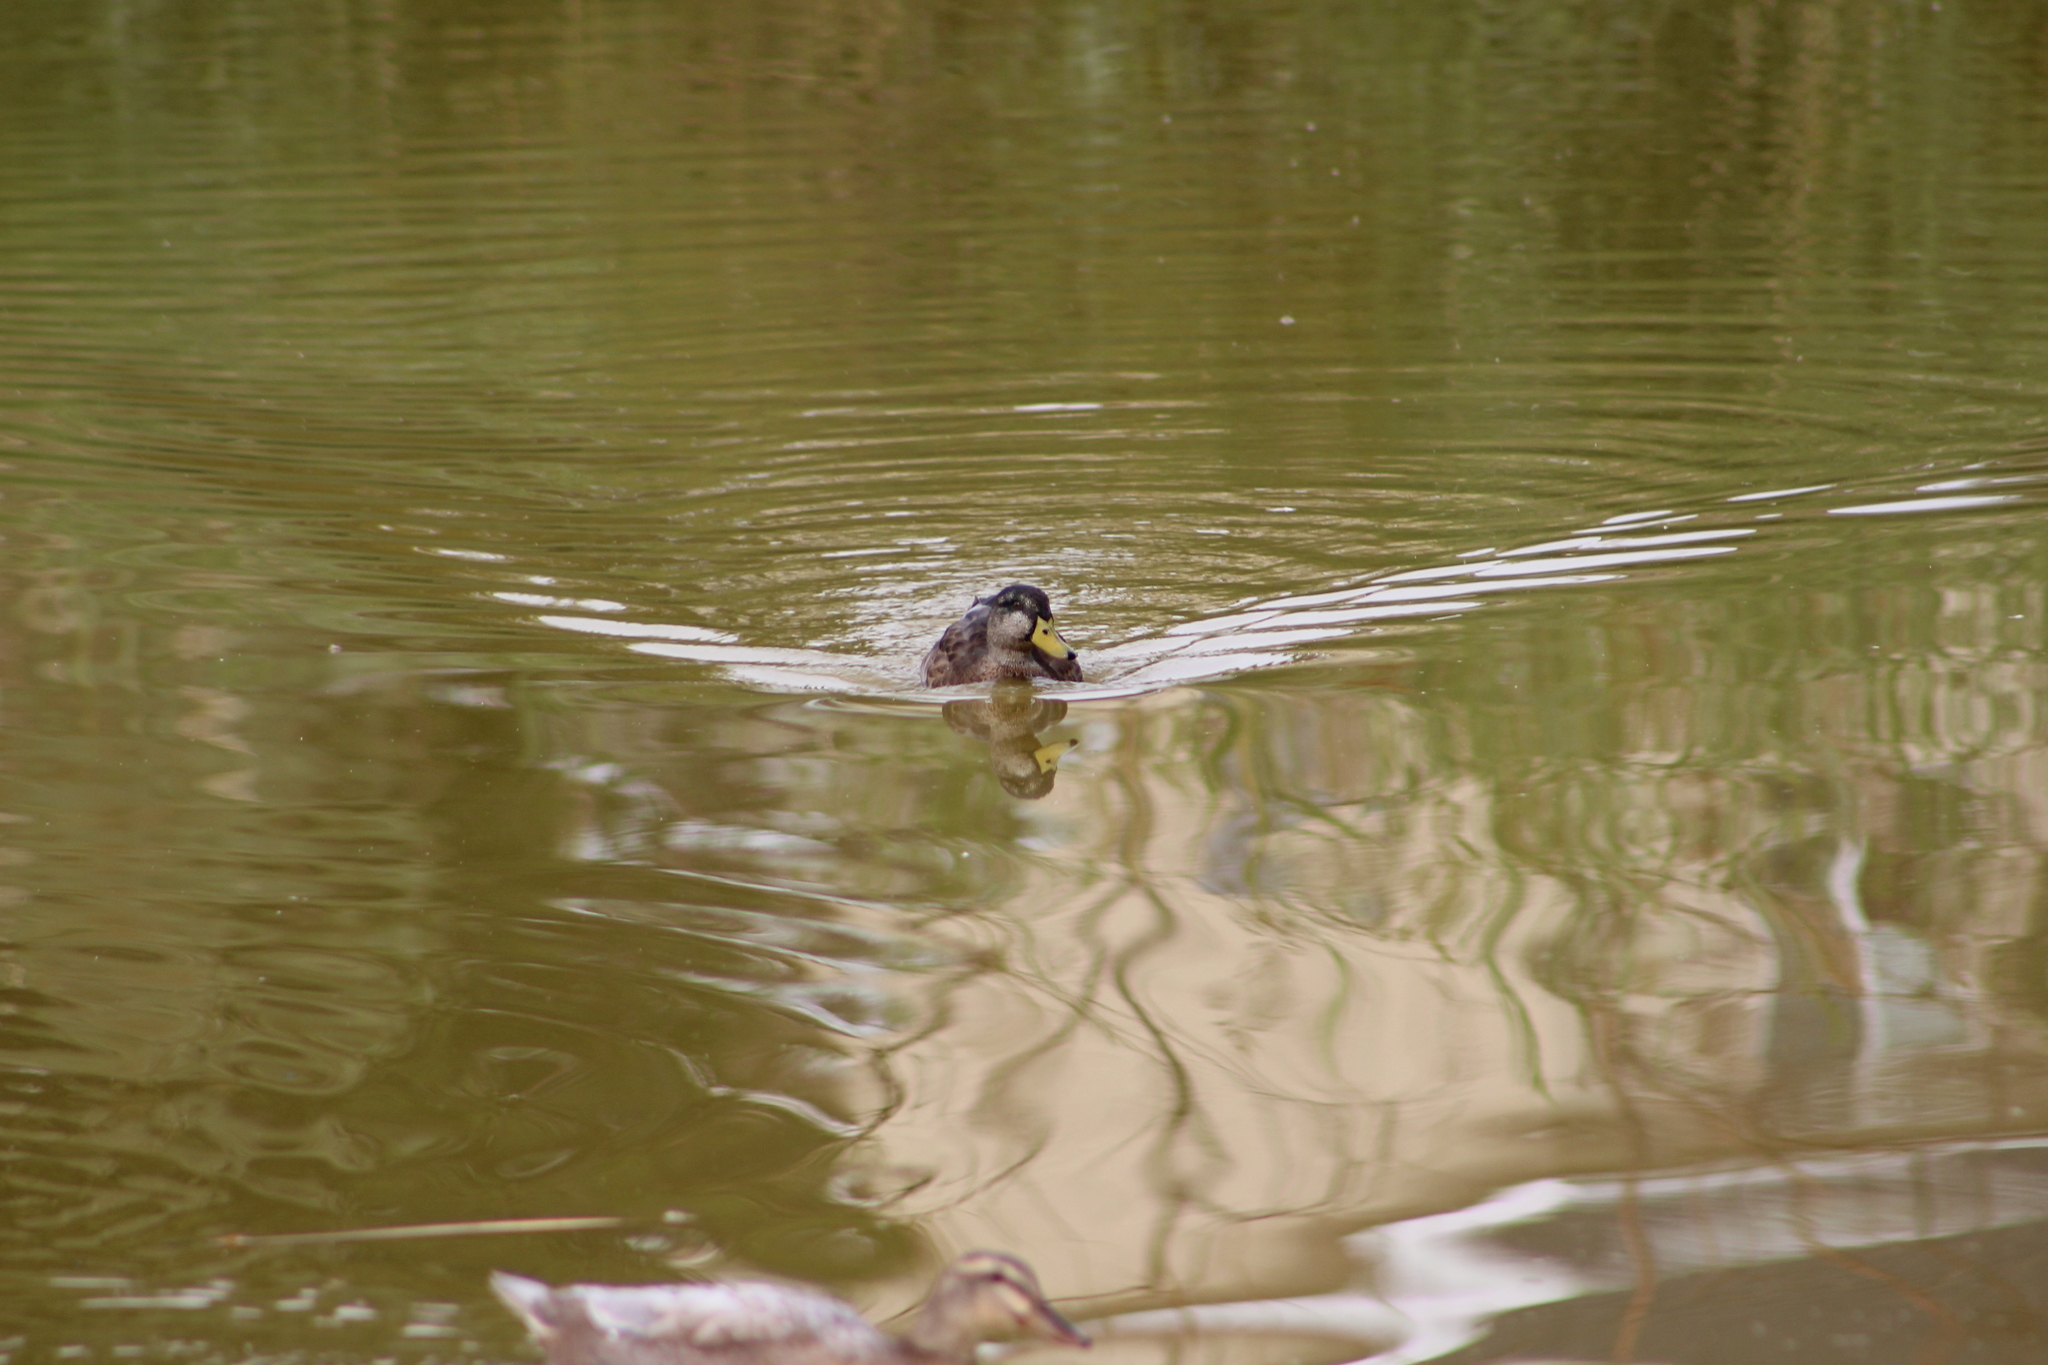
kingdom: Animalia
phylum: Chordata
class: Aves
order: Anseriformes
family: Anatidae
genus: Anas
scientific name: Anas platyrhynchos
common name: Mallard
